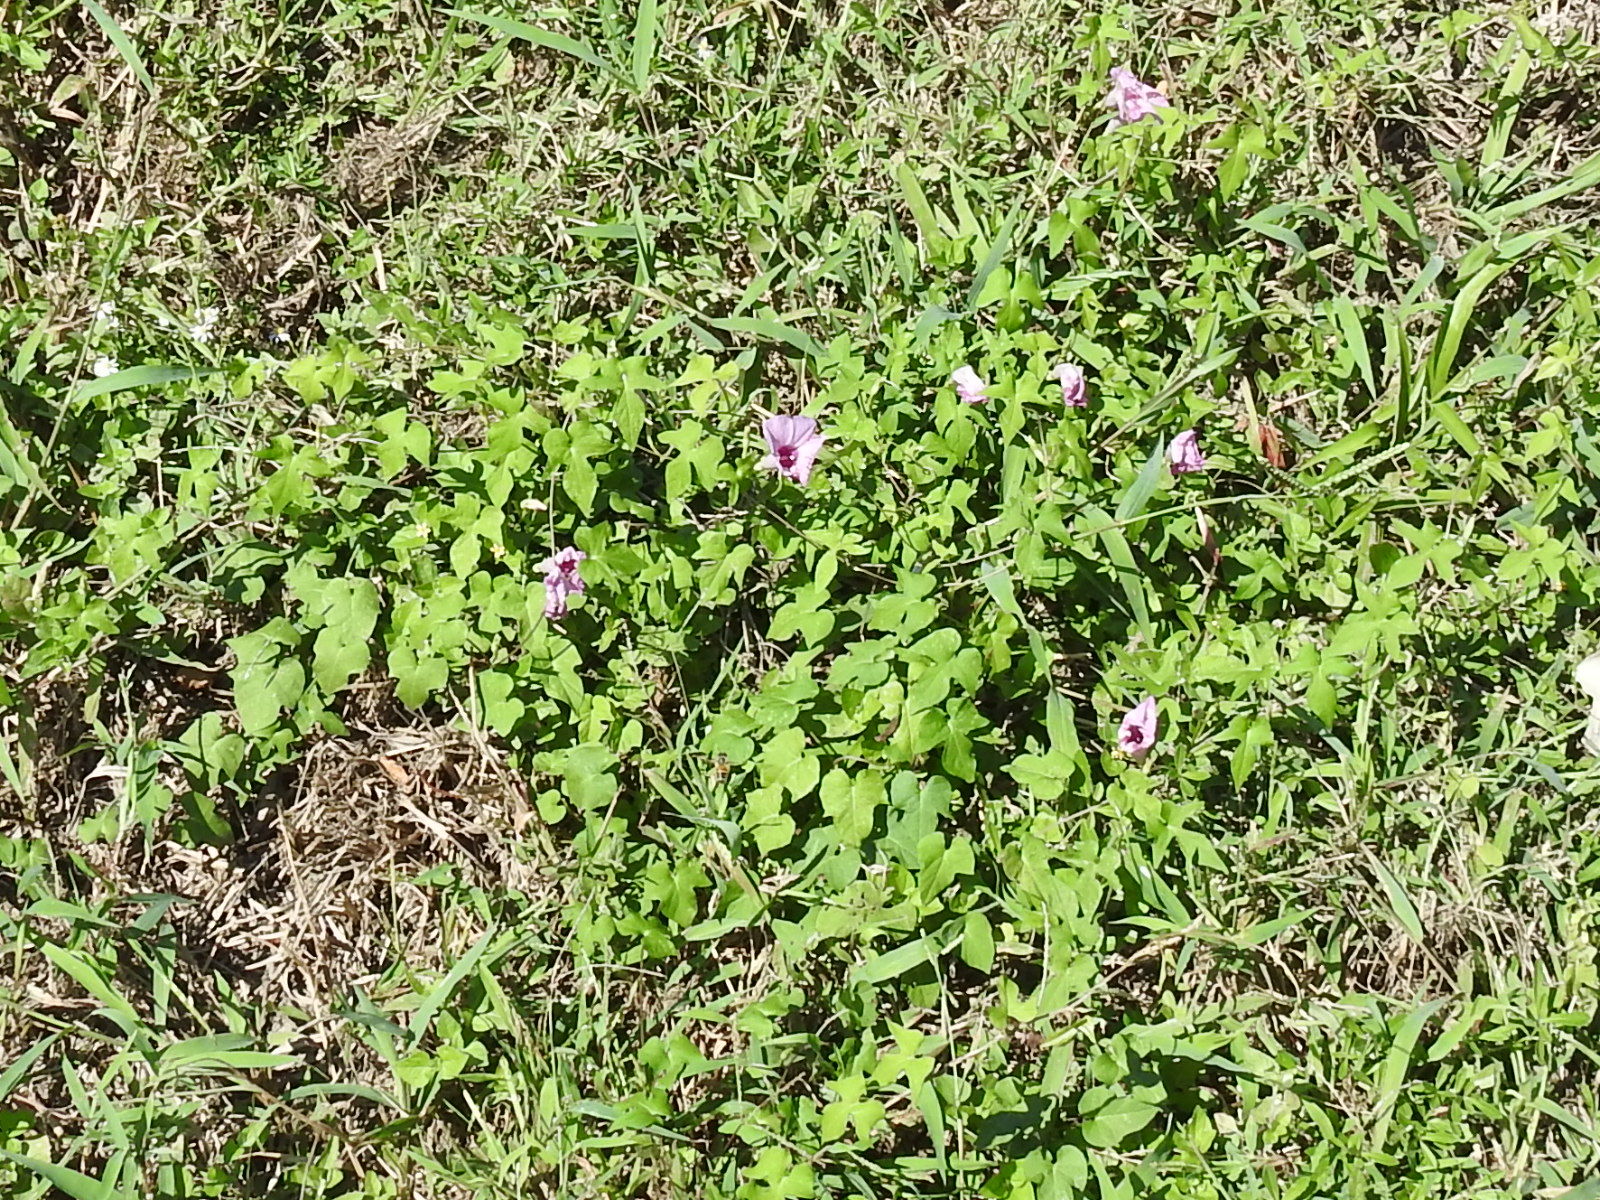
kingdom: Plantae
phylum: Tracheophyta
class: Magnoliopsida
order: Solanales
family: Convolvulaceae
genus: Ipomoea
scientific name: Ipomoea cordatotriloba
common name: Cotton morning glory
